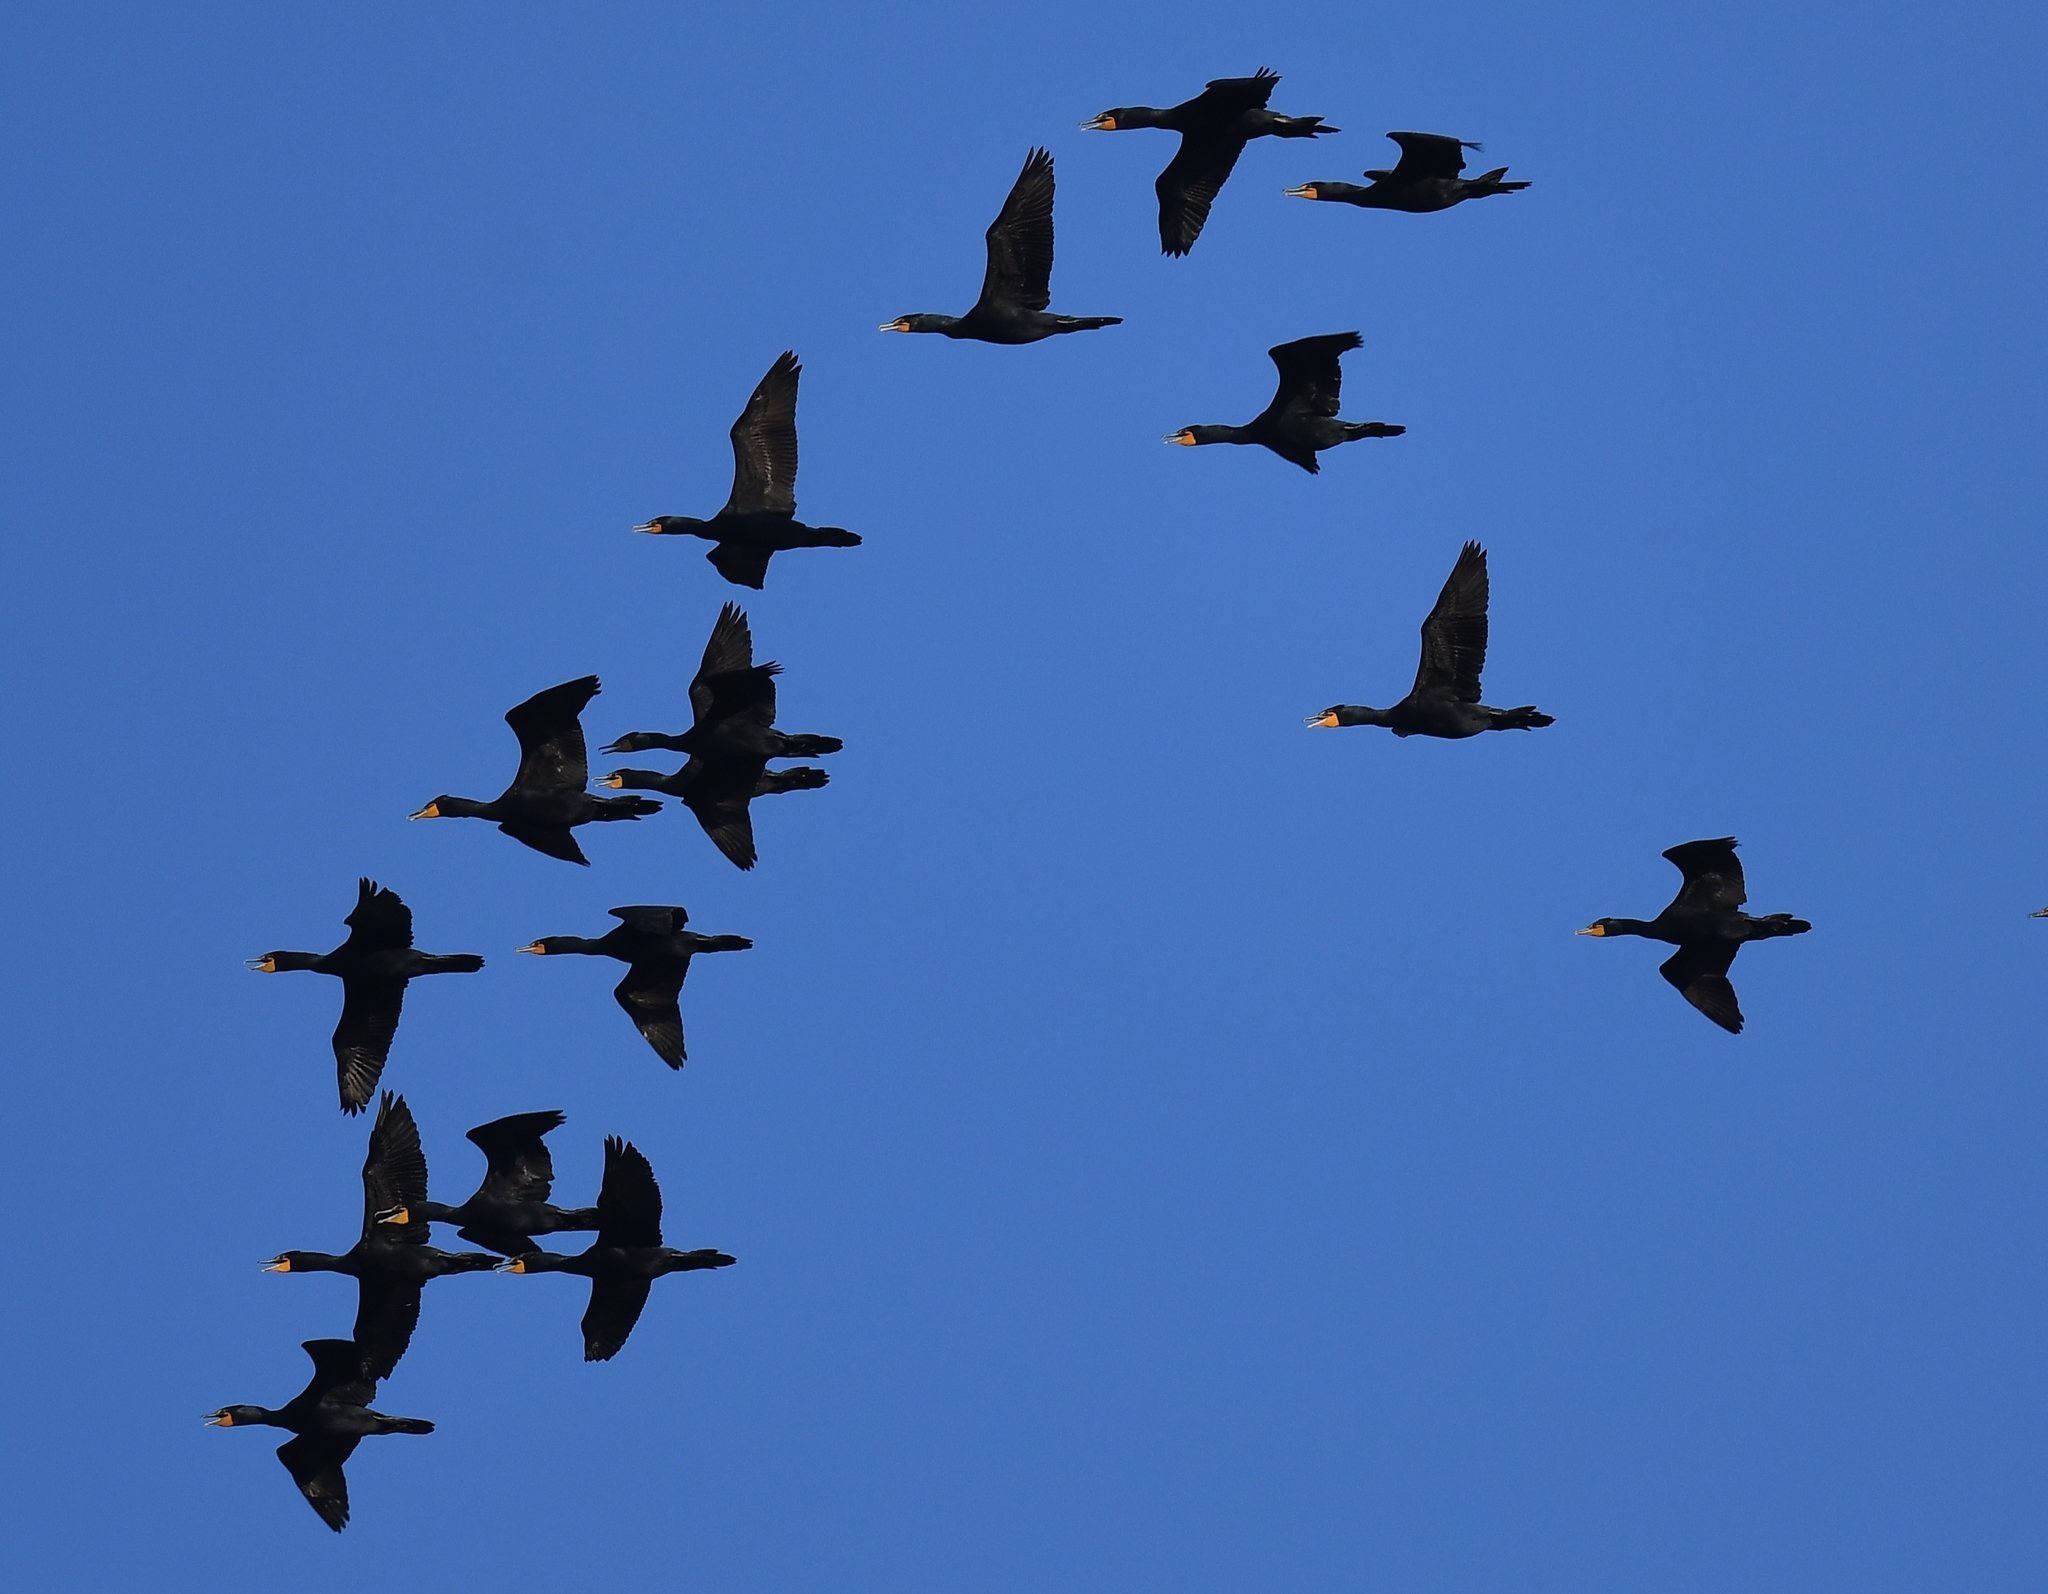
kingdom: Animalia
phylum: Chordata
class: Aves
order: Suliformes
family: Phalacrocoracidae
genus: Phalacrocorax
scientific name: Phalacrocorax auritus
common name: Double-crested cormorant
